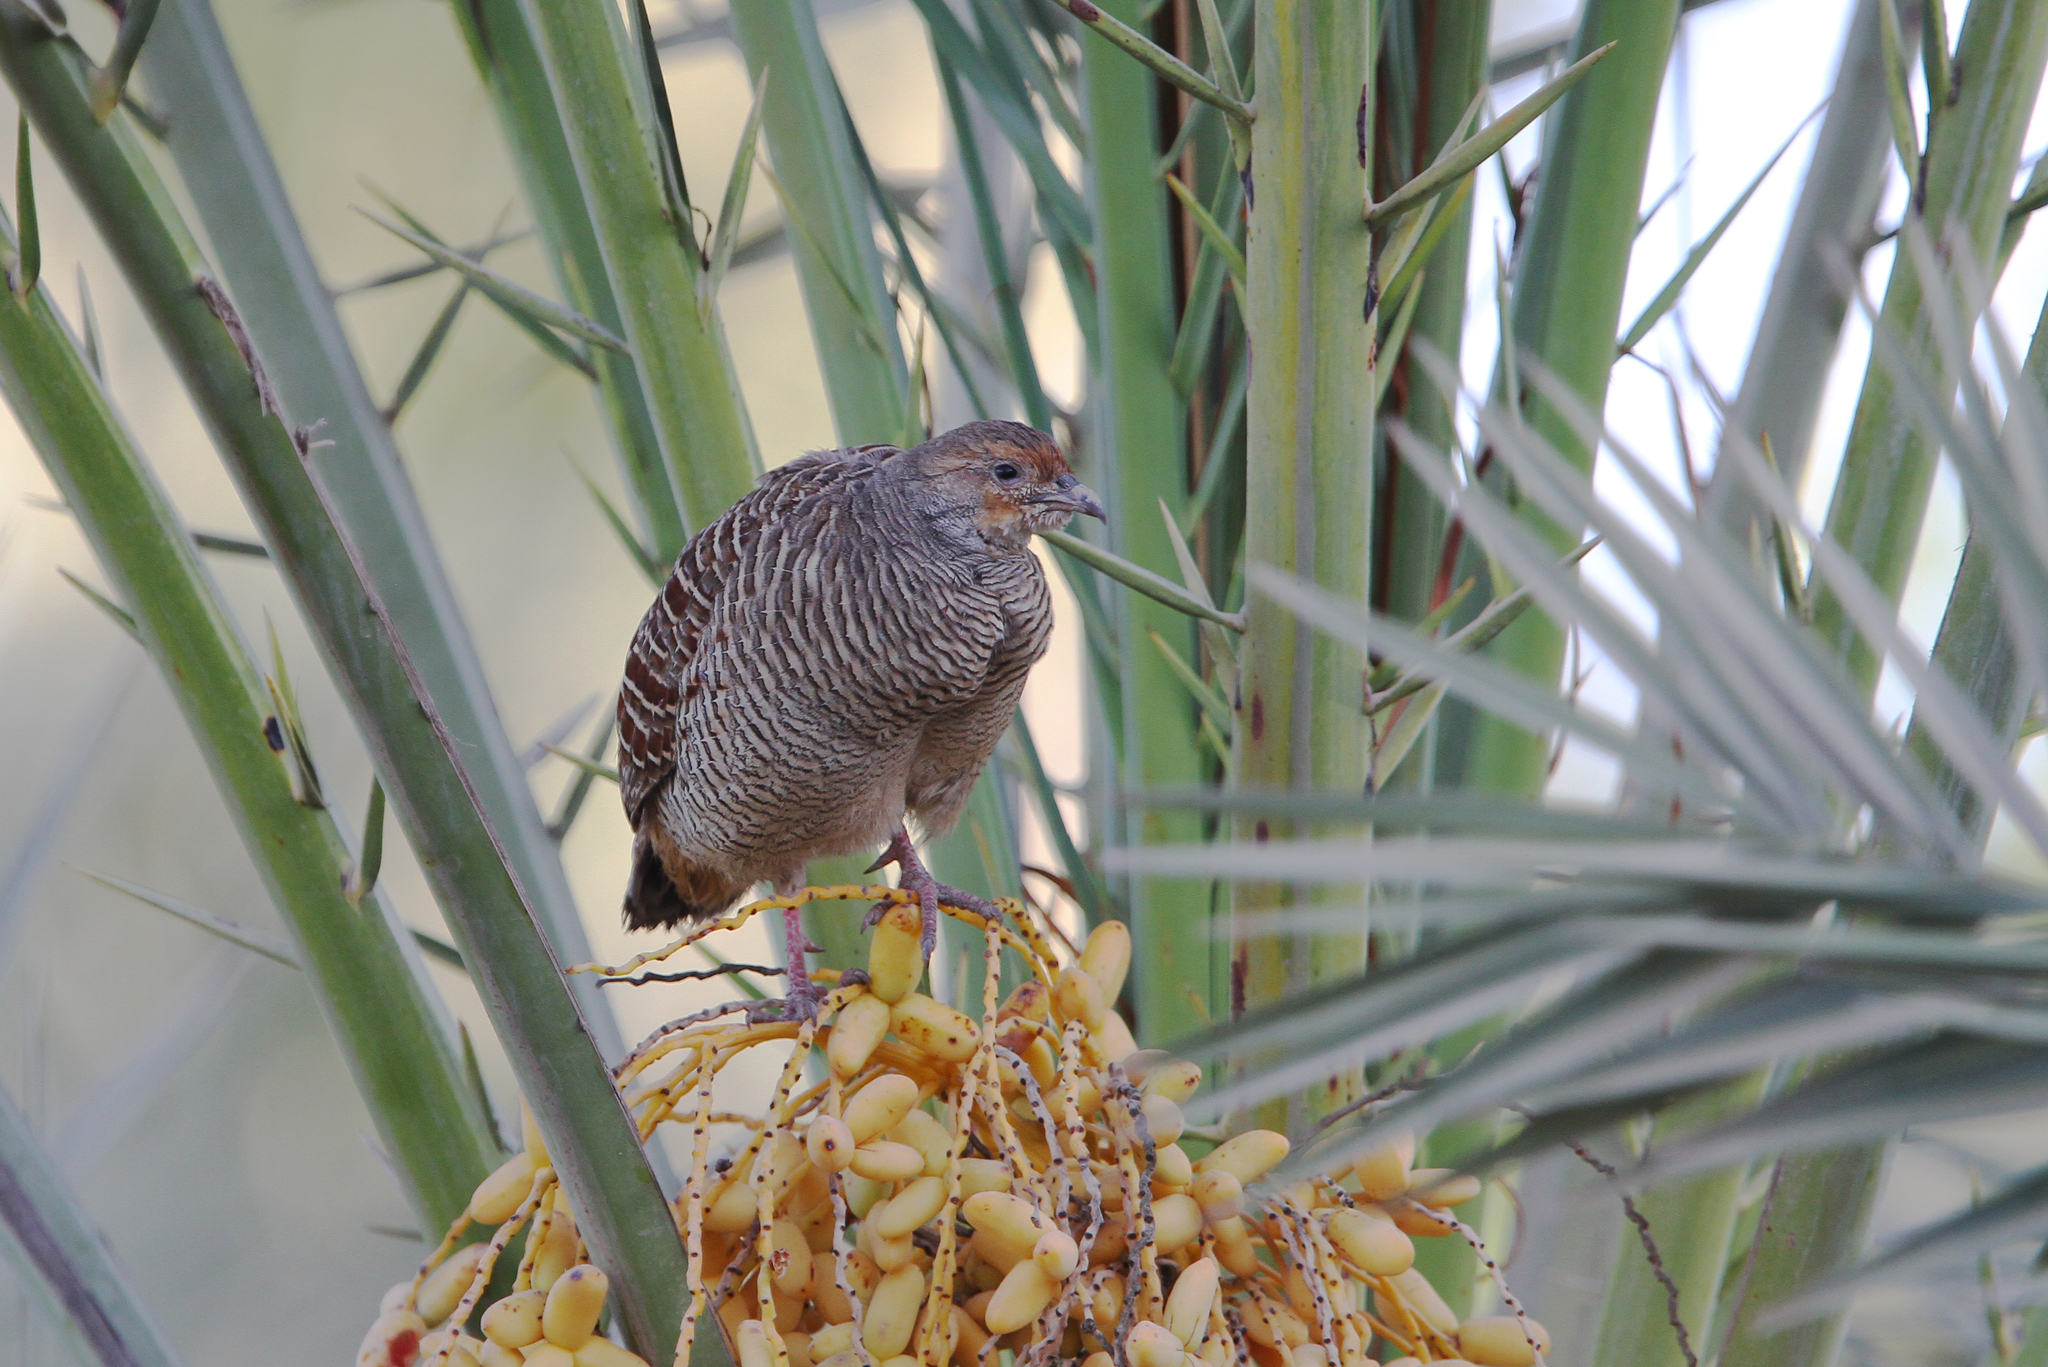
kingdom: Animalia
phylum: Chordata
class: Aves
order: Galliformes
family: Phasianidae
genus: Ortygornis
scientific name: Ortygornis pondicerianus
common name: Grey francolin
